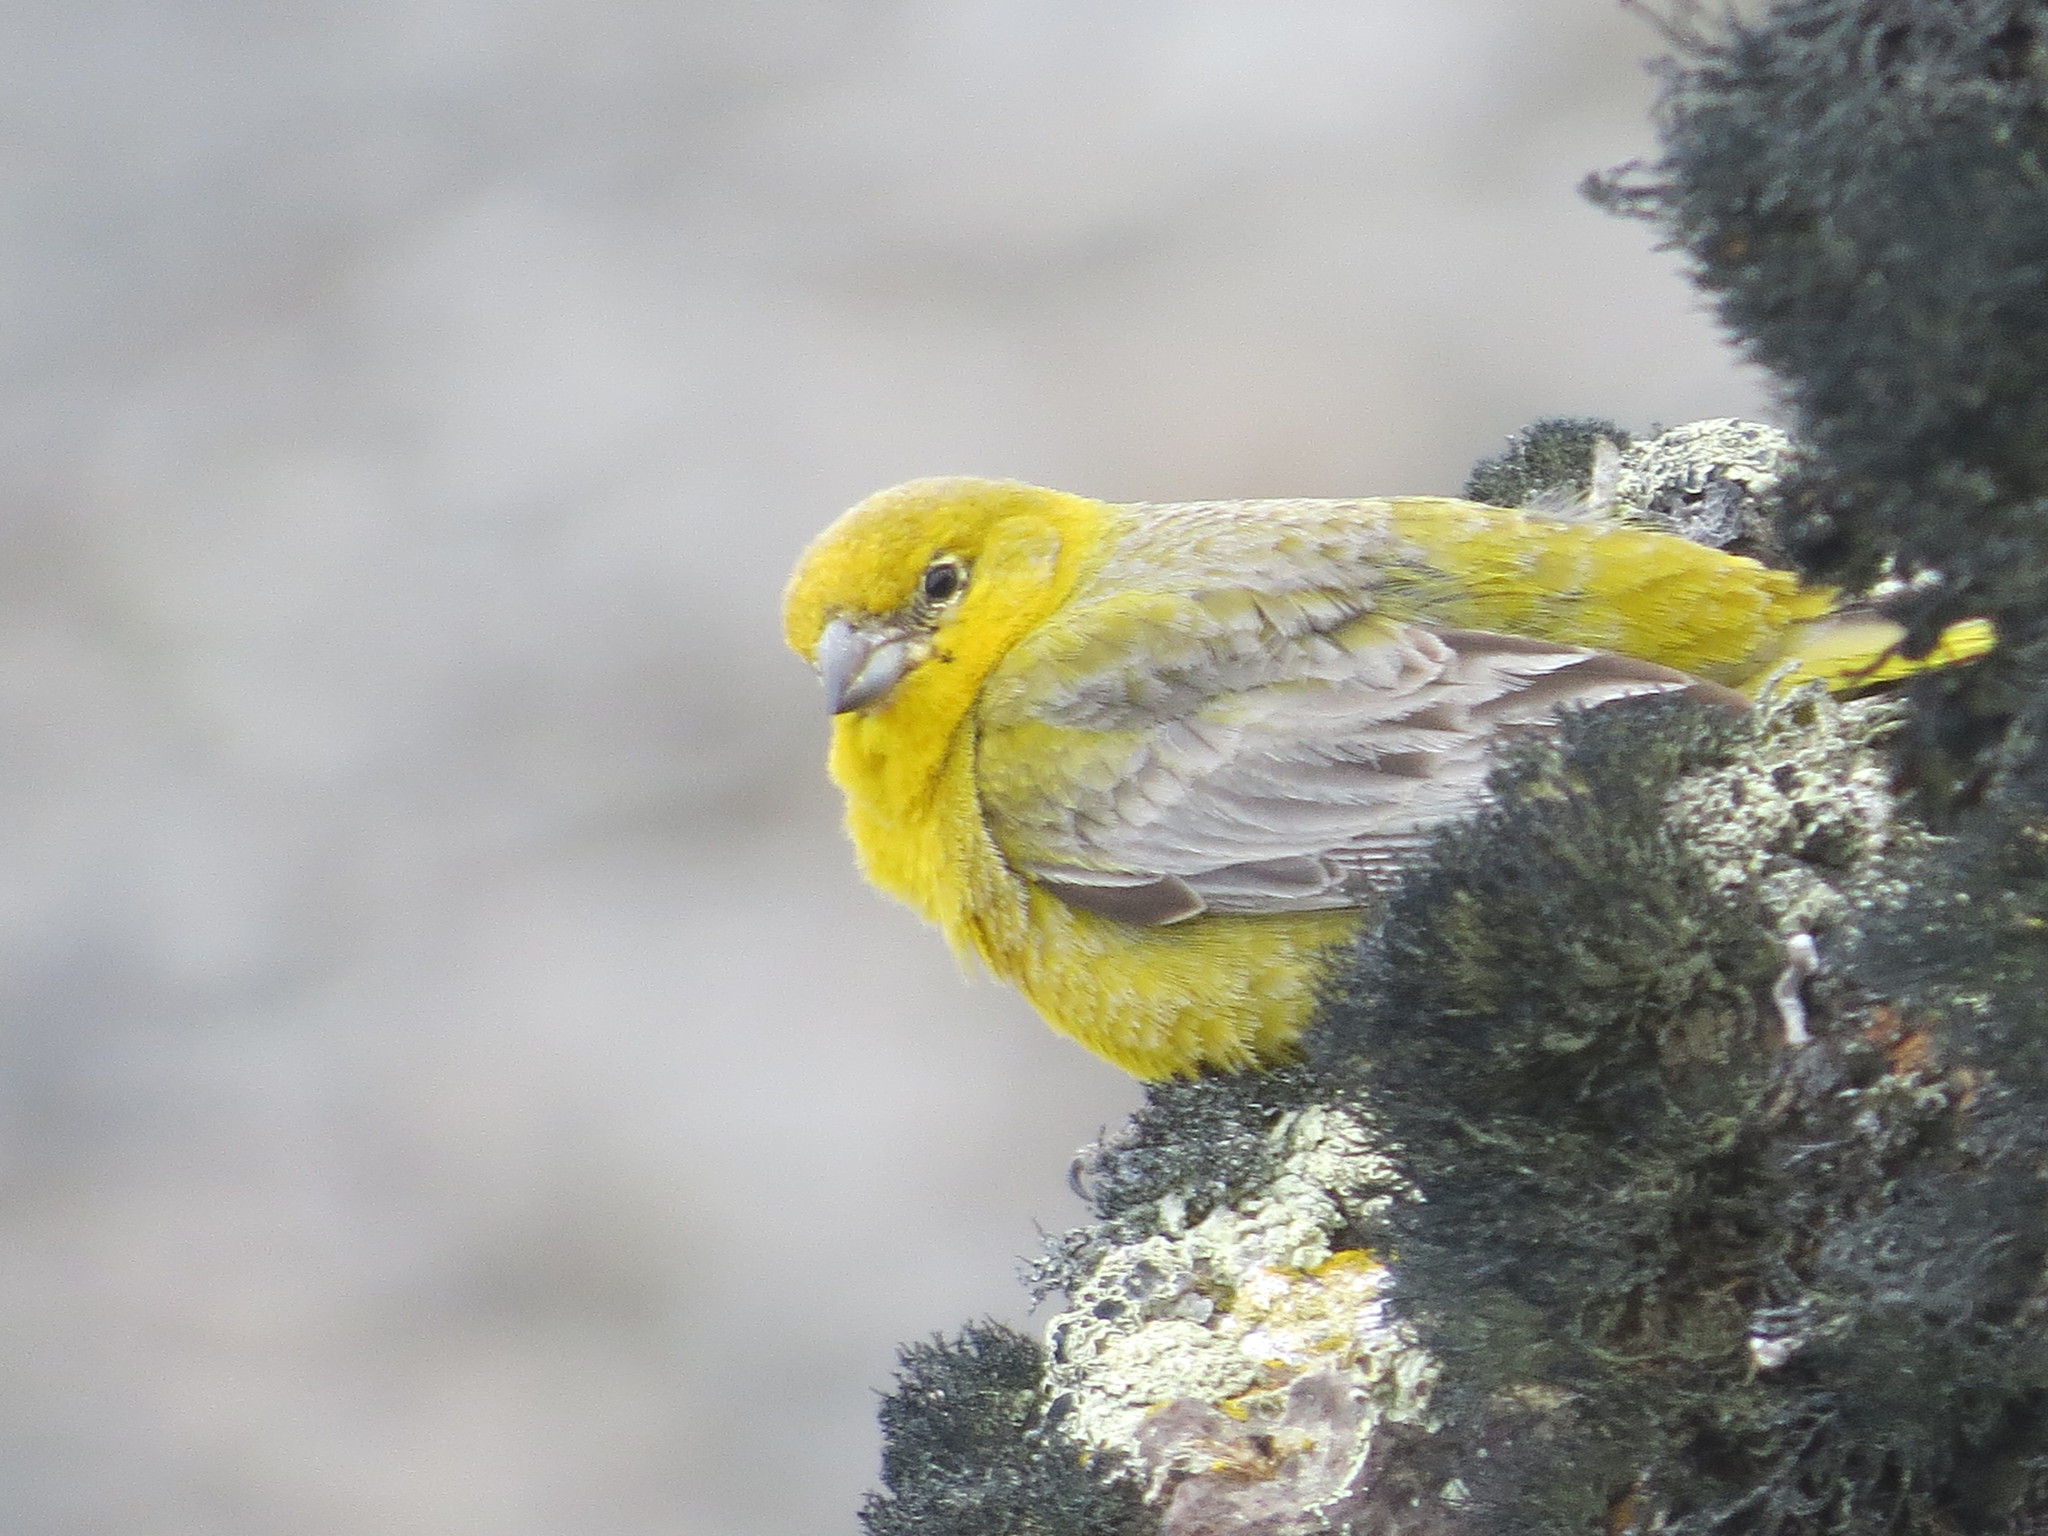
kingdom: Animalia
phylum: Chordata
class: Aves
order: Passeriformes
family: Thraupidae
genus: Sicalis
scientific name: Sicalis auriventris
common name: Greater yellow finch
